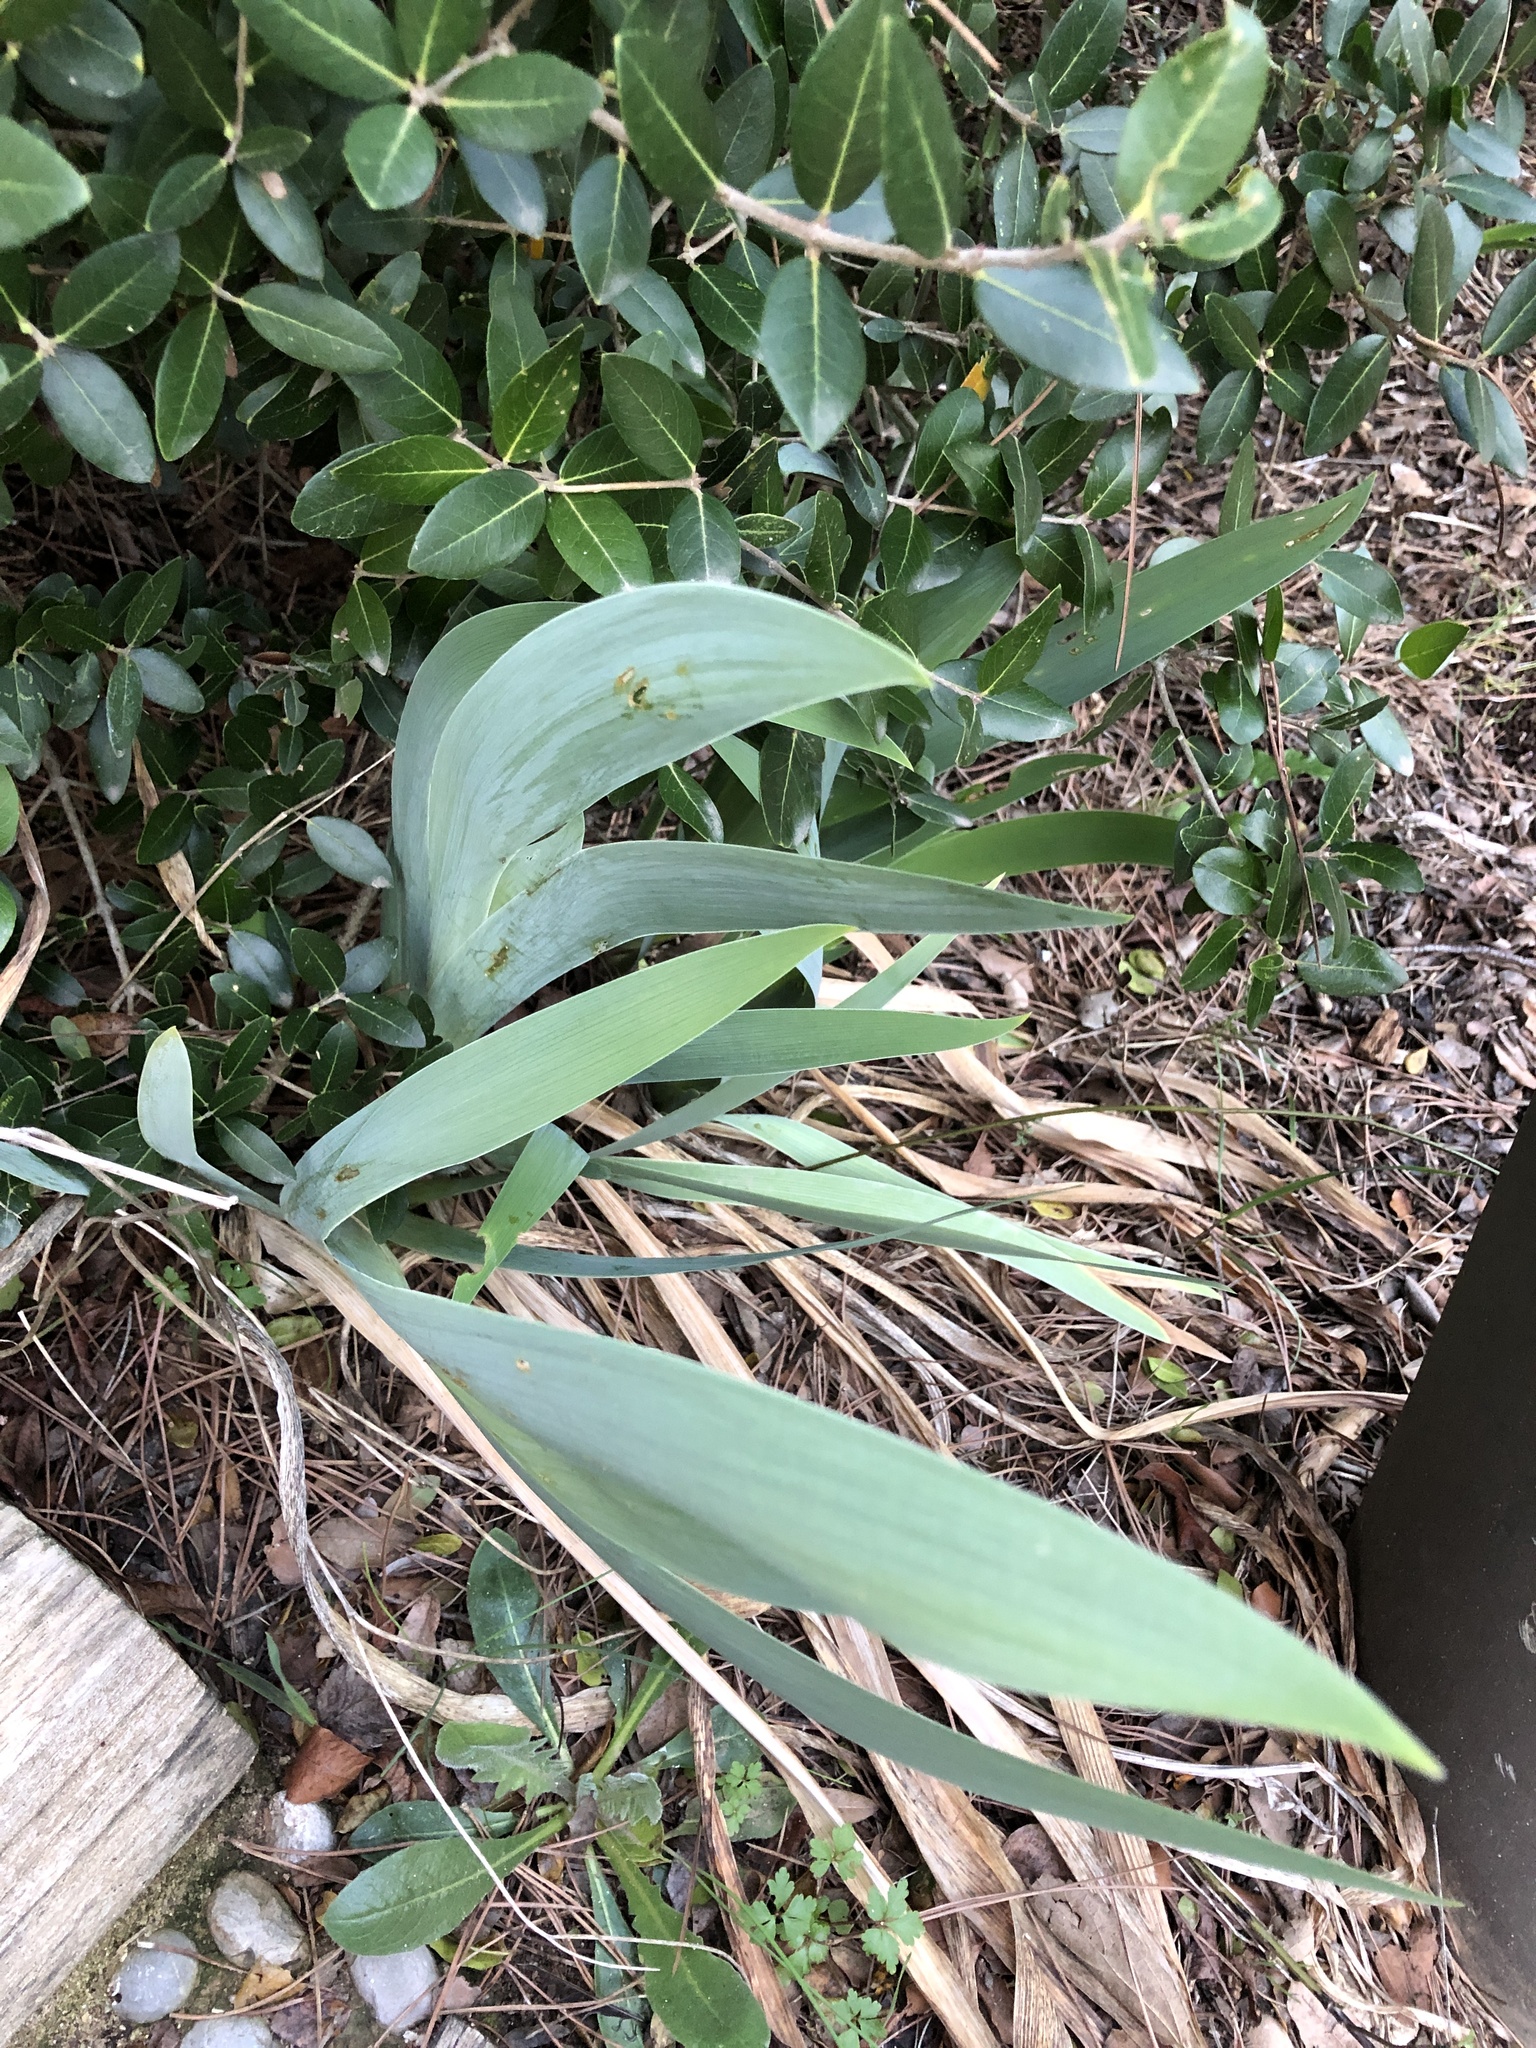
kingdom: Plantae
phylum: Tracheophyta
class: Liliopsida
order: Asparagales
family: Iridaceae
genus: Iris
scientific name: Iris germanica
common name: German iris
